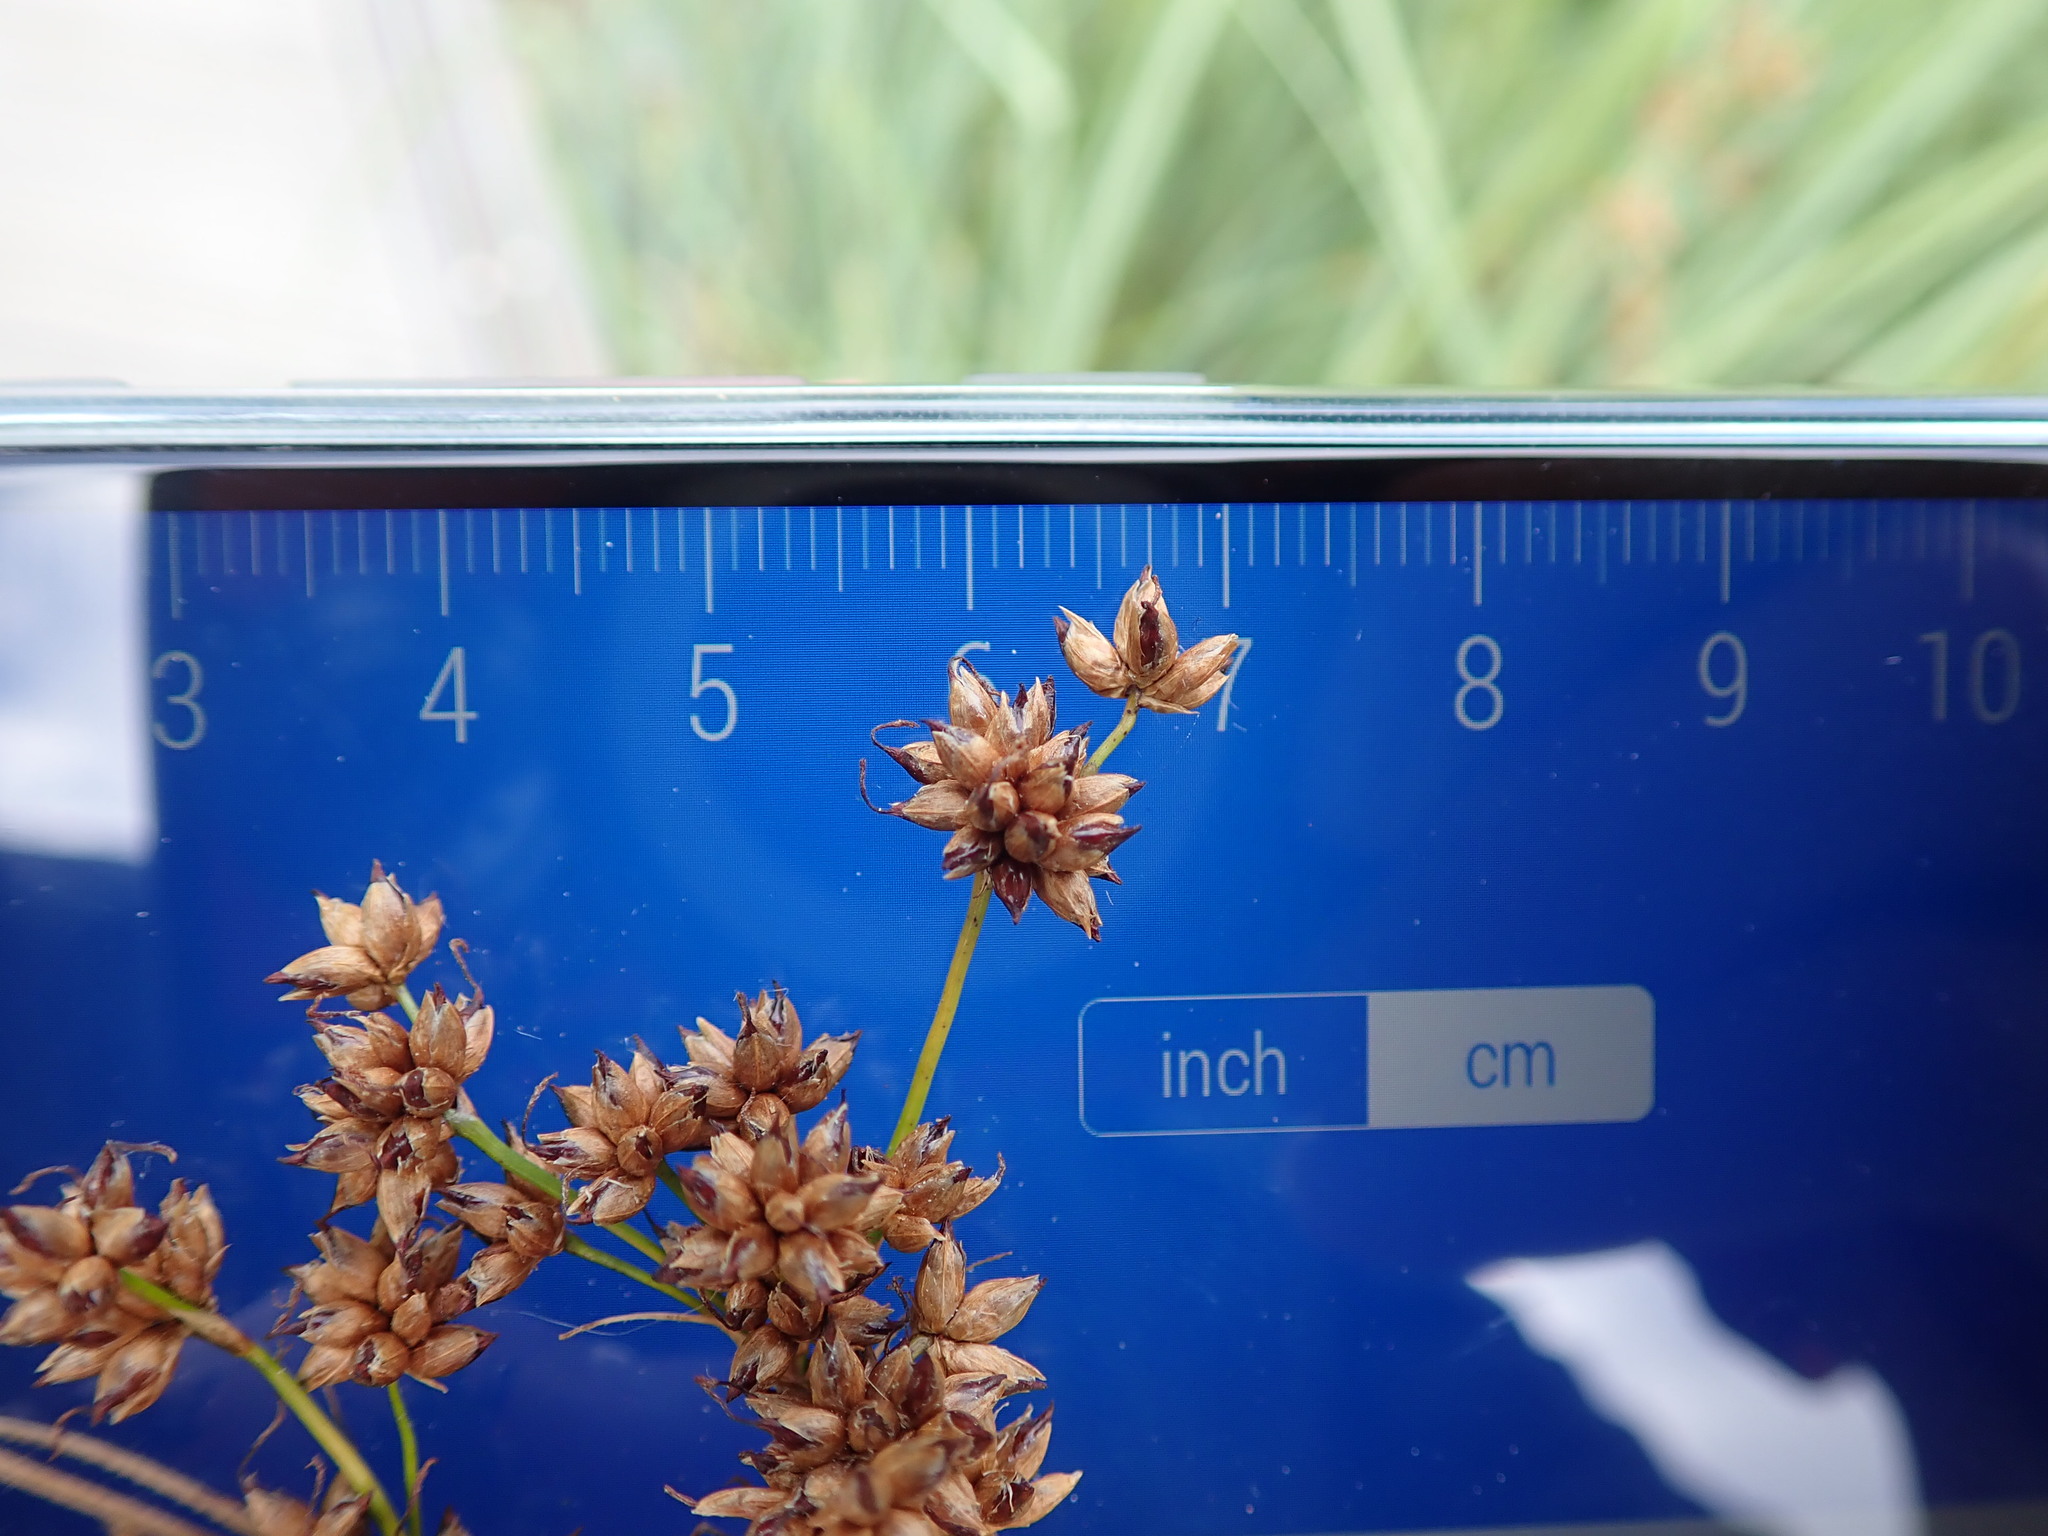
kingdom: Plantae
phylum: Tracheophyta
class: Liliopsida
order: Poales
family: Cyperaceae
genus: Cladium
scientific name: Cladium mariscus
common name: Great fen-sedge
